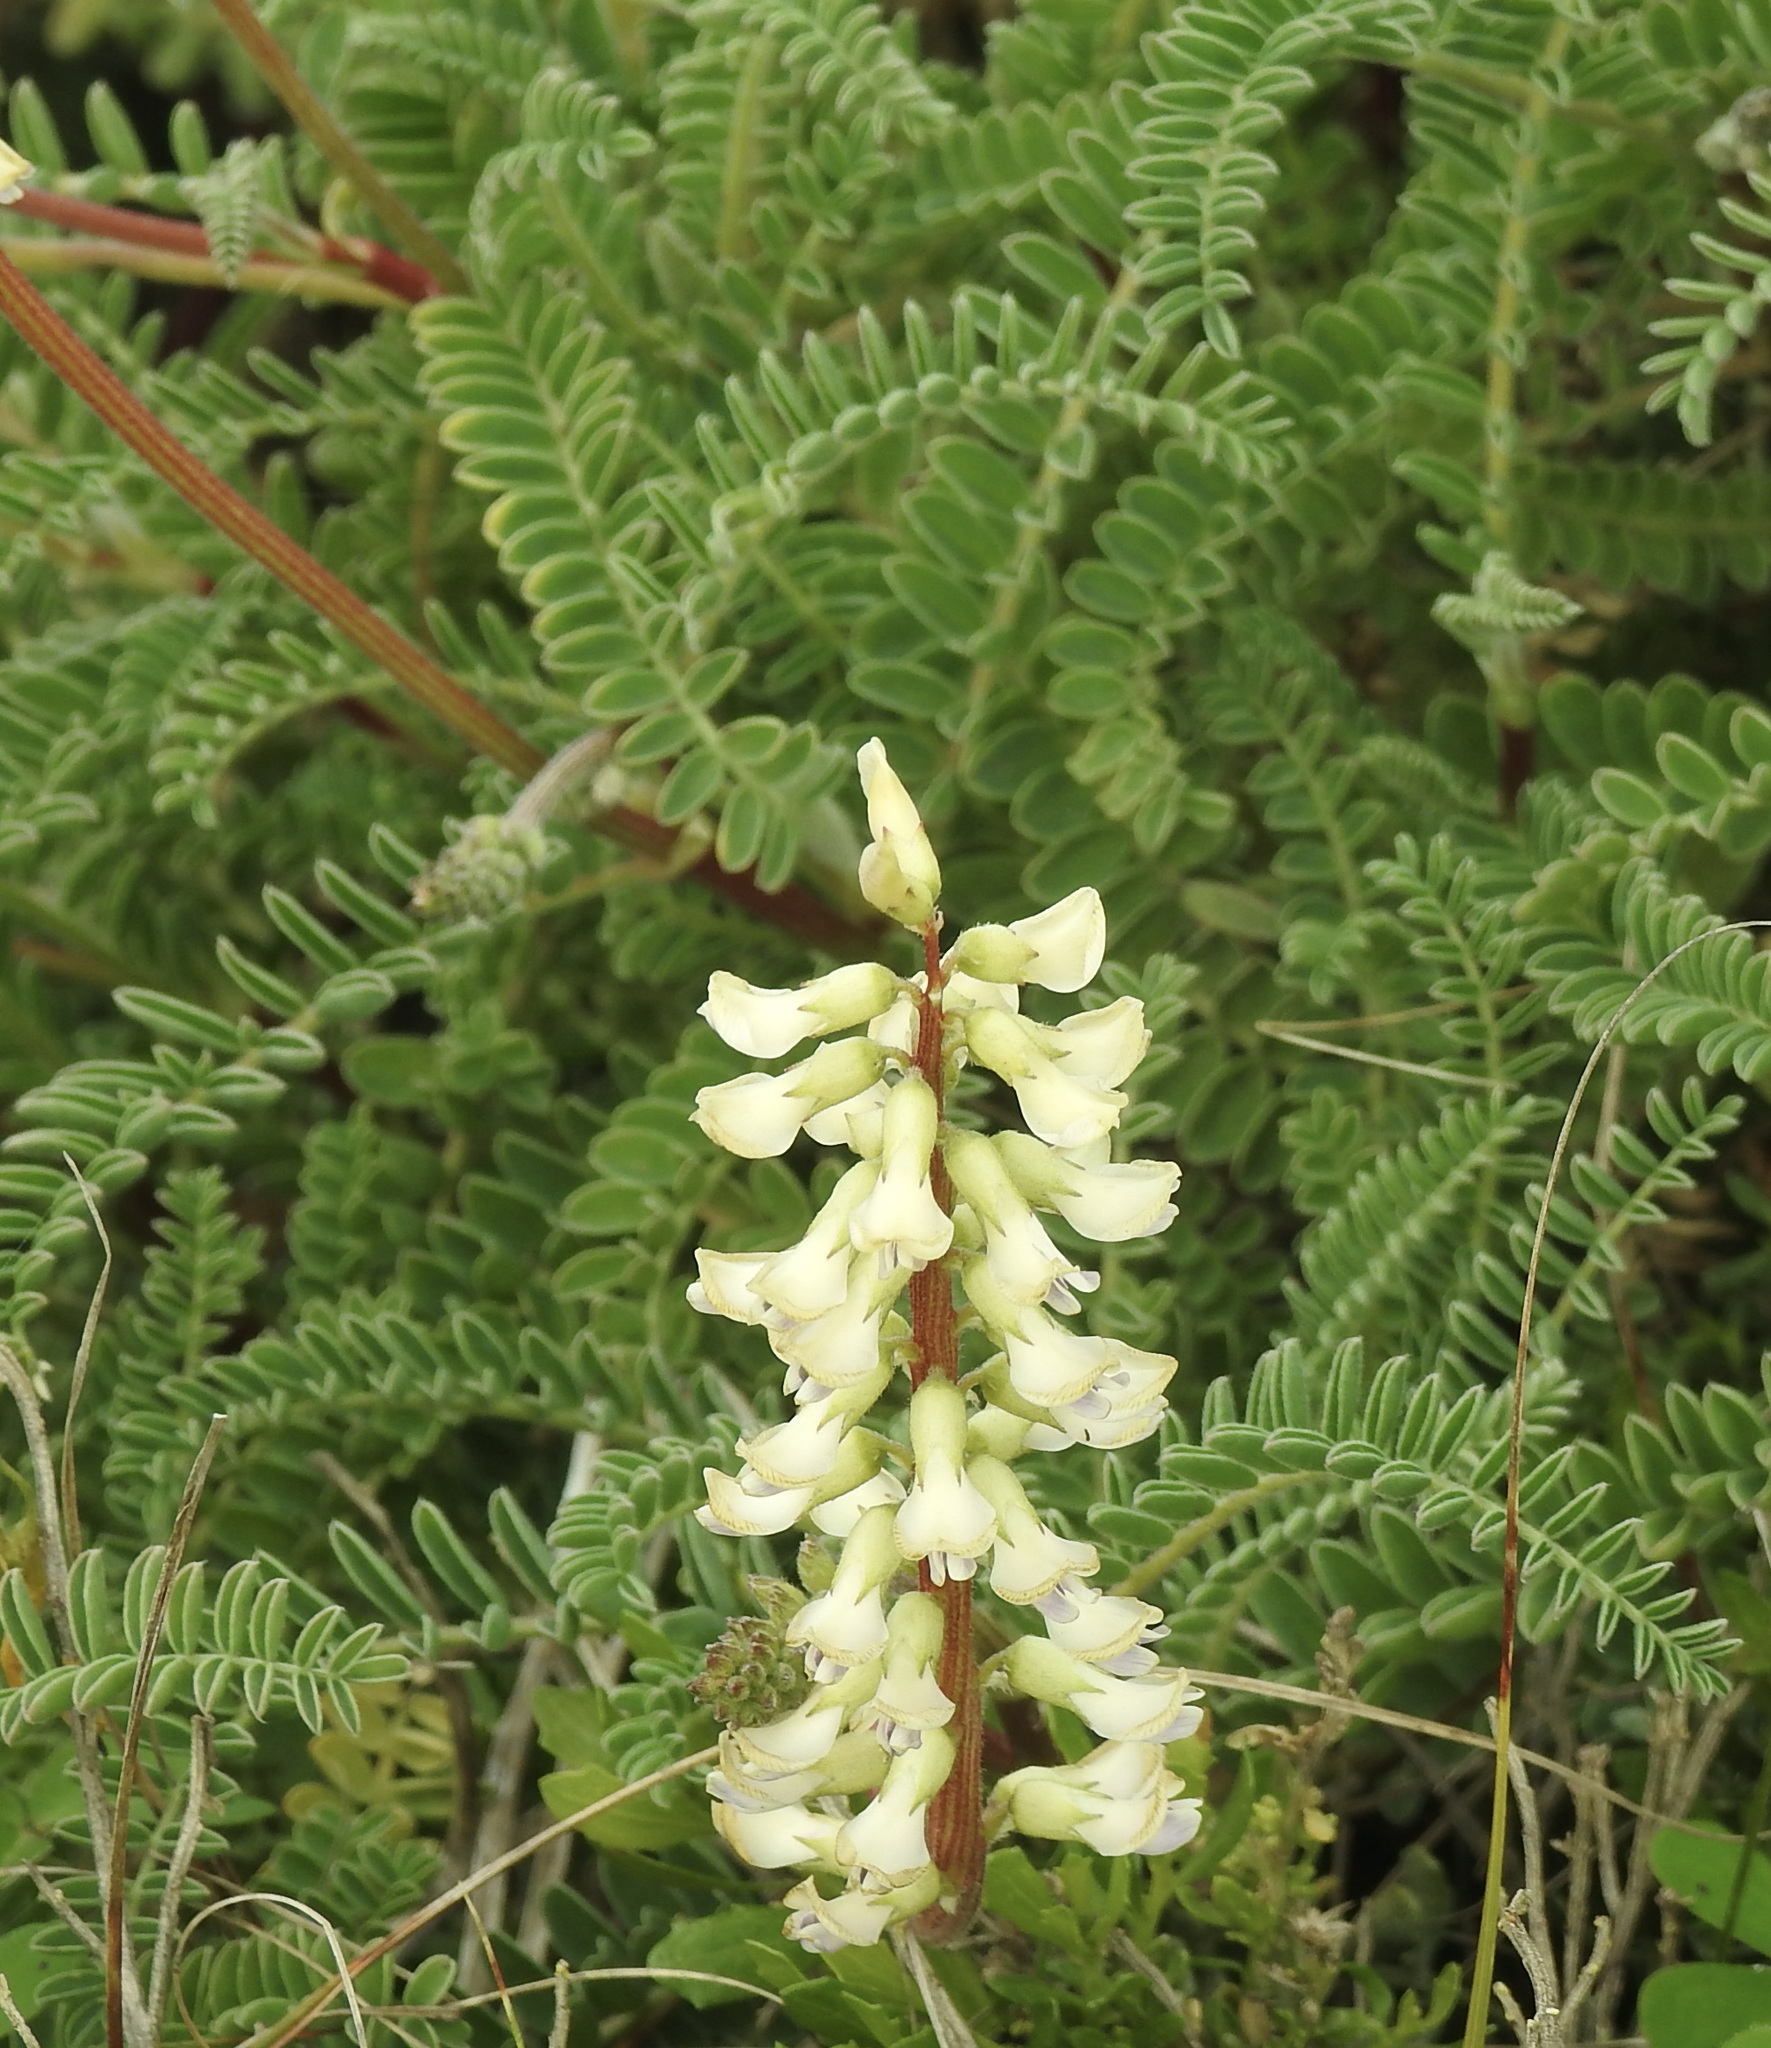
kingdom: Plantae
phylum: Tracheophyta
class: Magnoliopsida
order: Fabales
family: Fabaceae
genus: Astragalus
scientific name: Astragalus nuttallii
